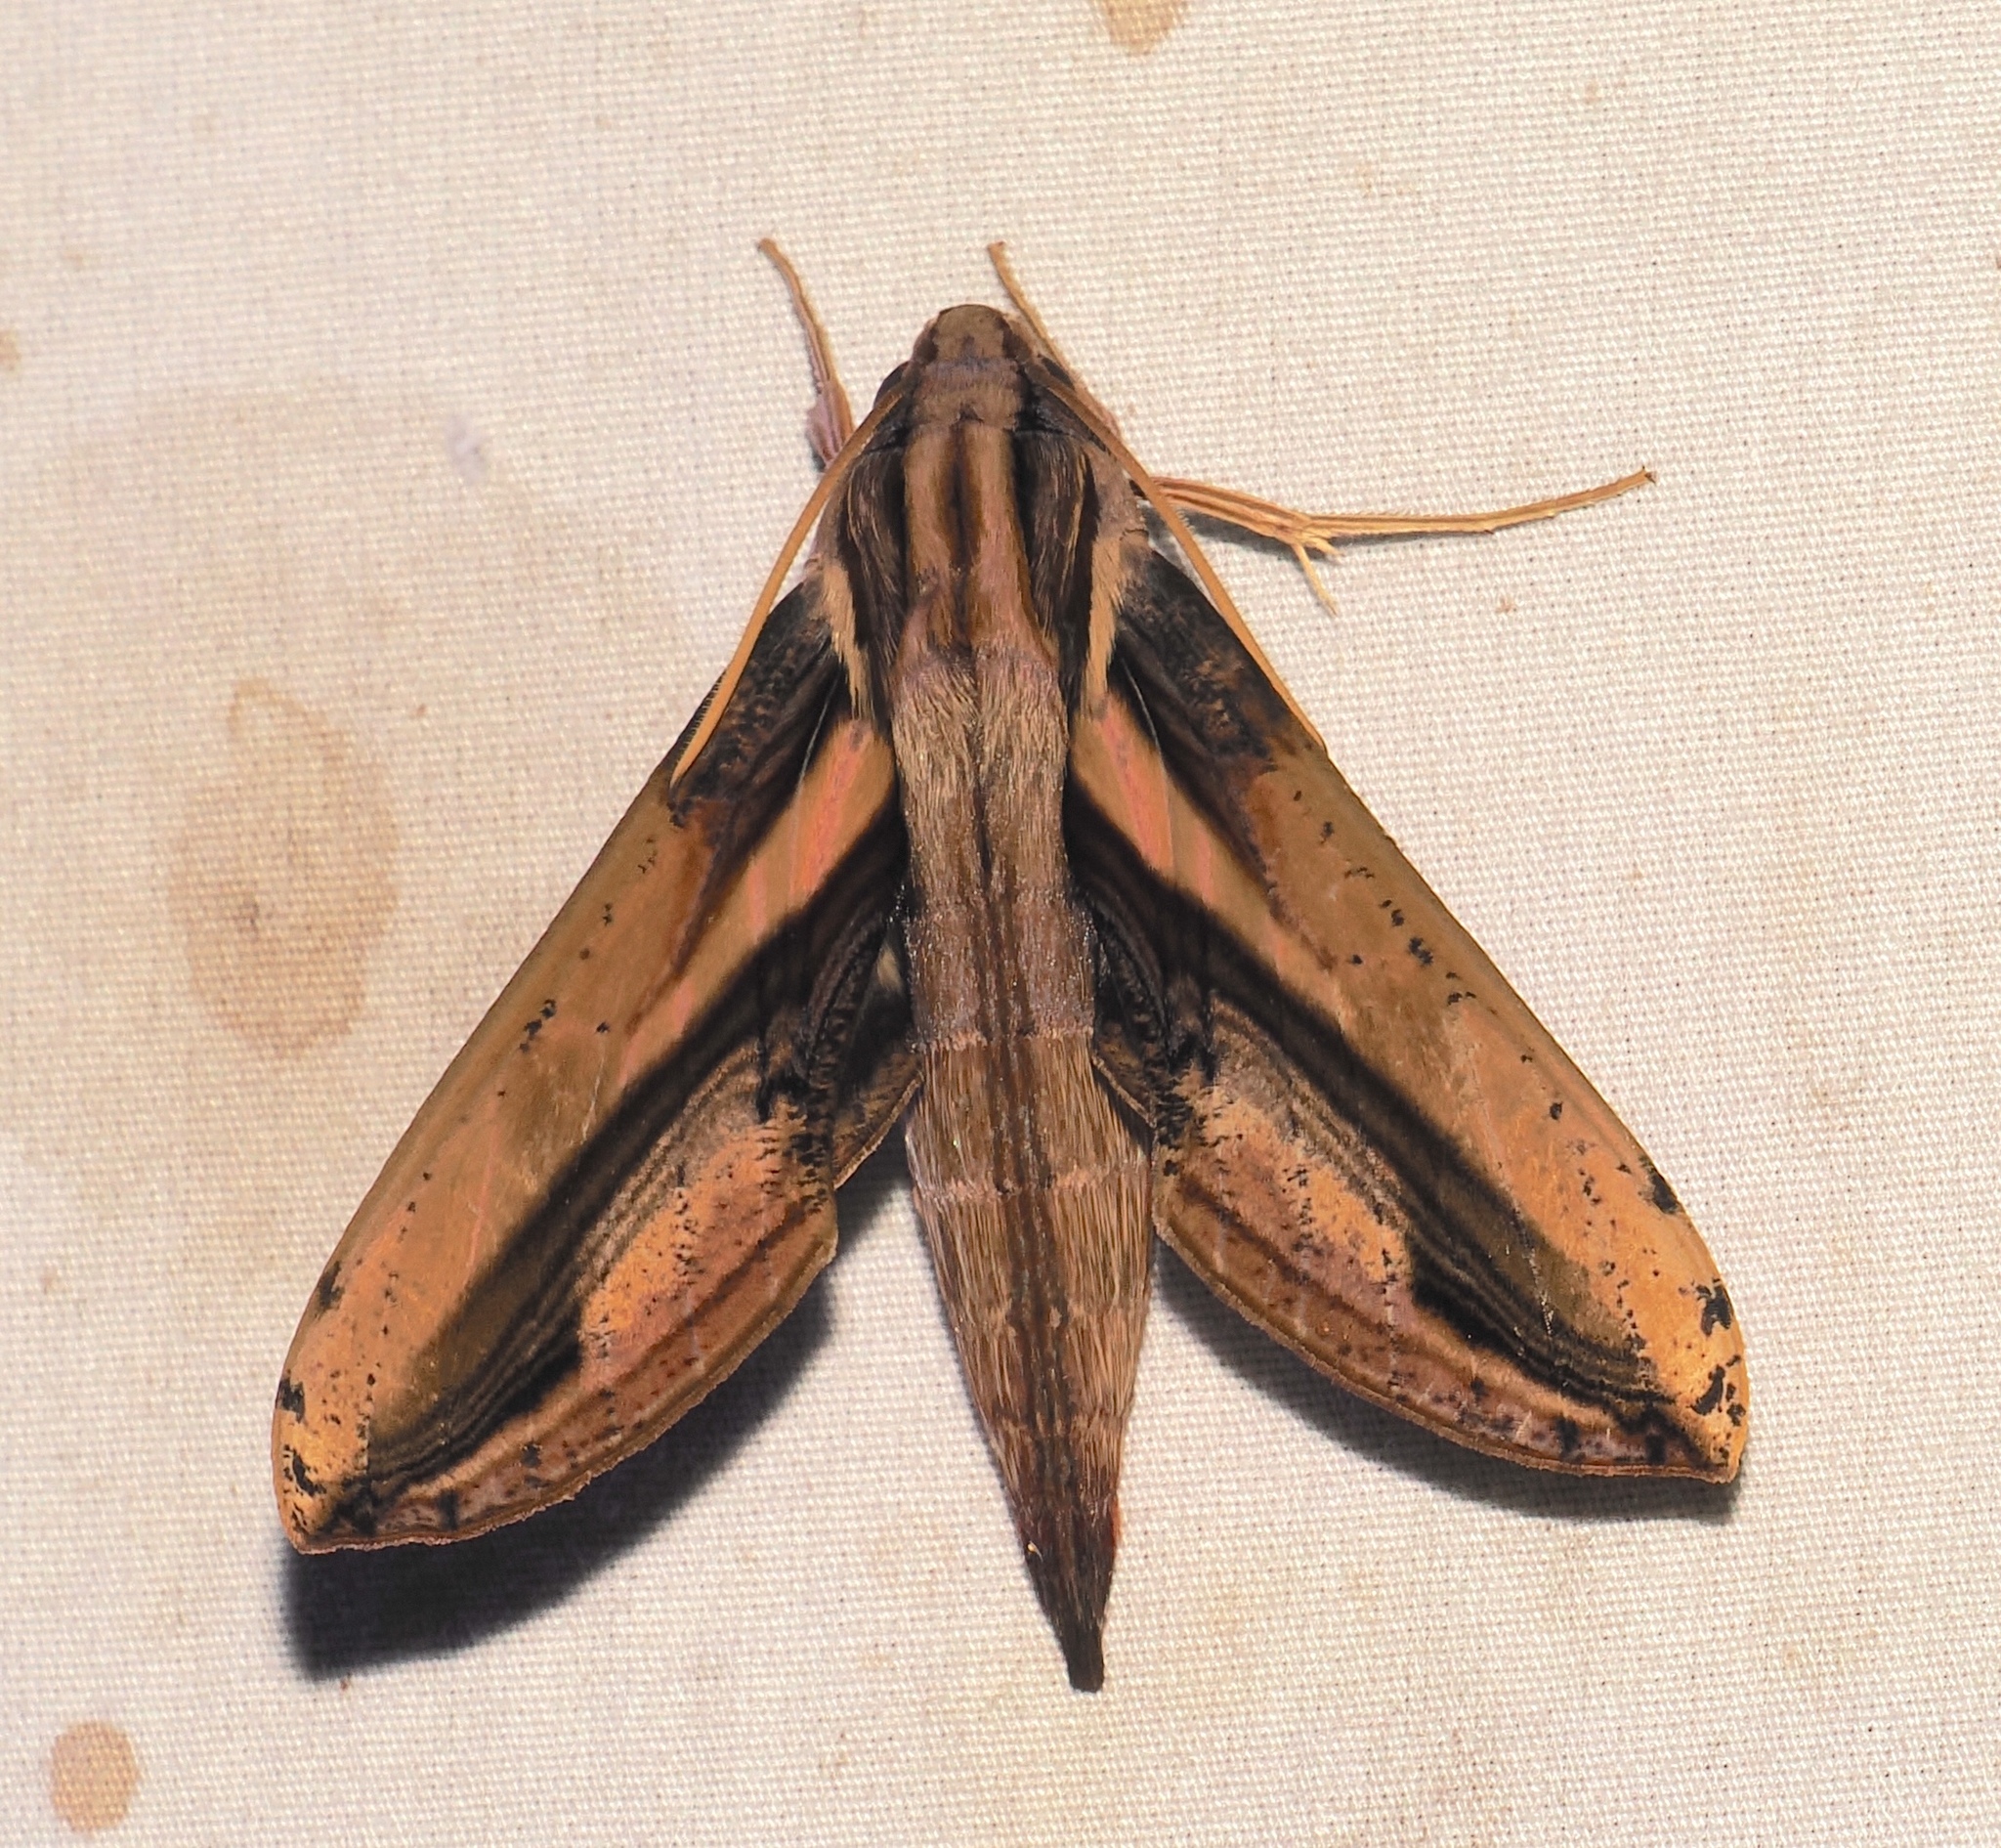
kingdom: Animalia
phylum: Arthropoda
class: Insecta
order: Lepidoptera
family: Sphingidae
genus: Xylophanes
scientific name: Xylophanes xylobotes
